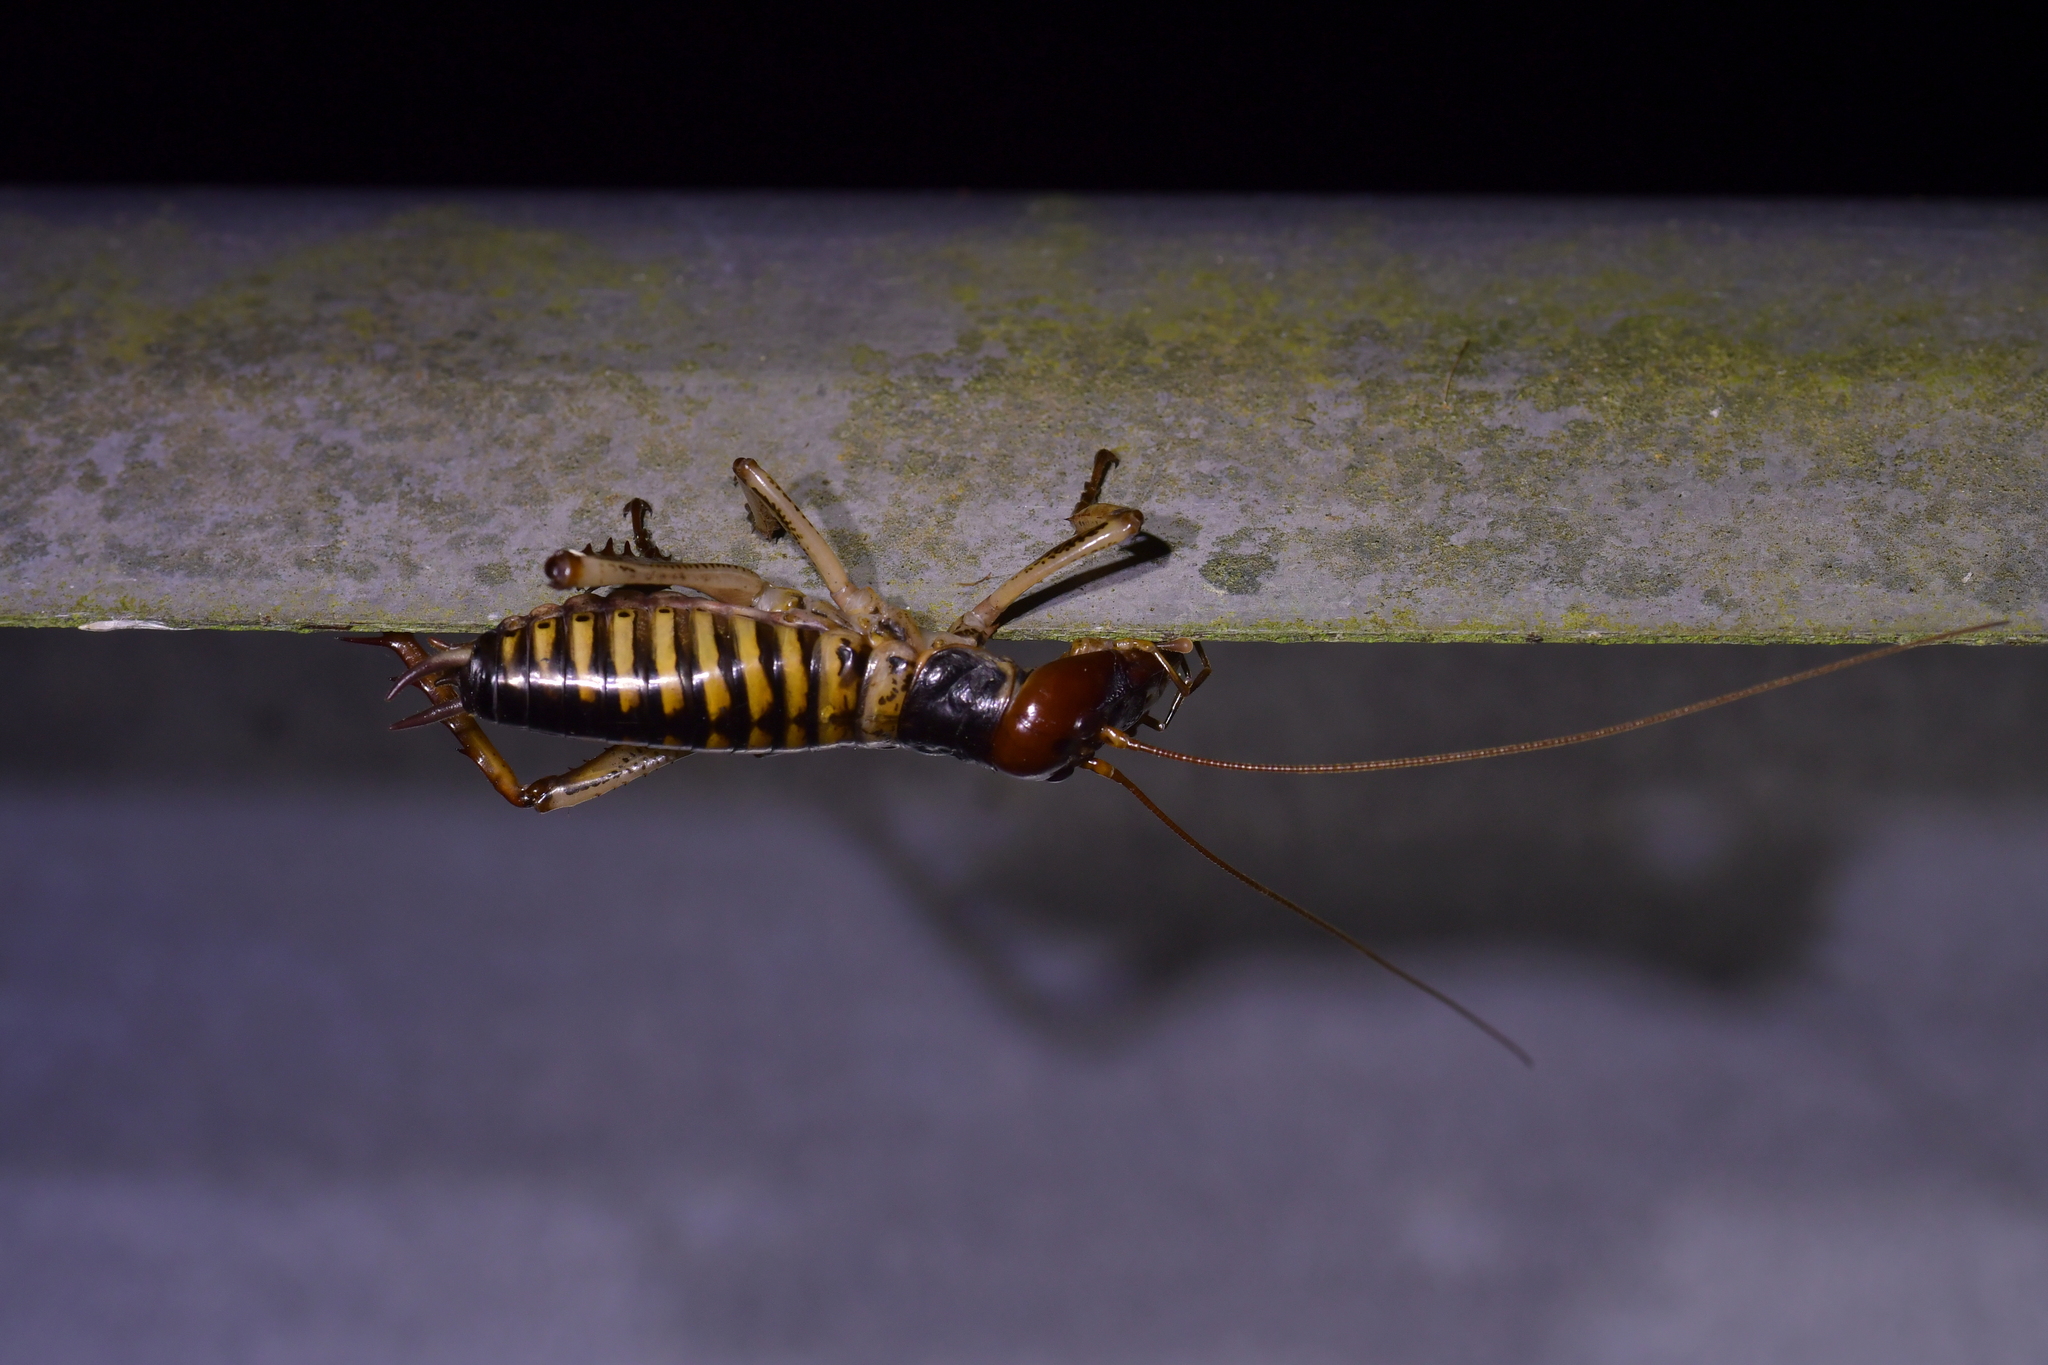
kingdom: Animalia
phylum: Arthropoda
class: Insecta
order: Orthoptera
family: Anostostomatidae
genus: Hemideina
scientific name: Hemideina crassidens
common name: Wellington tree weta
